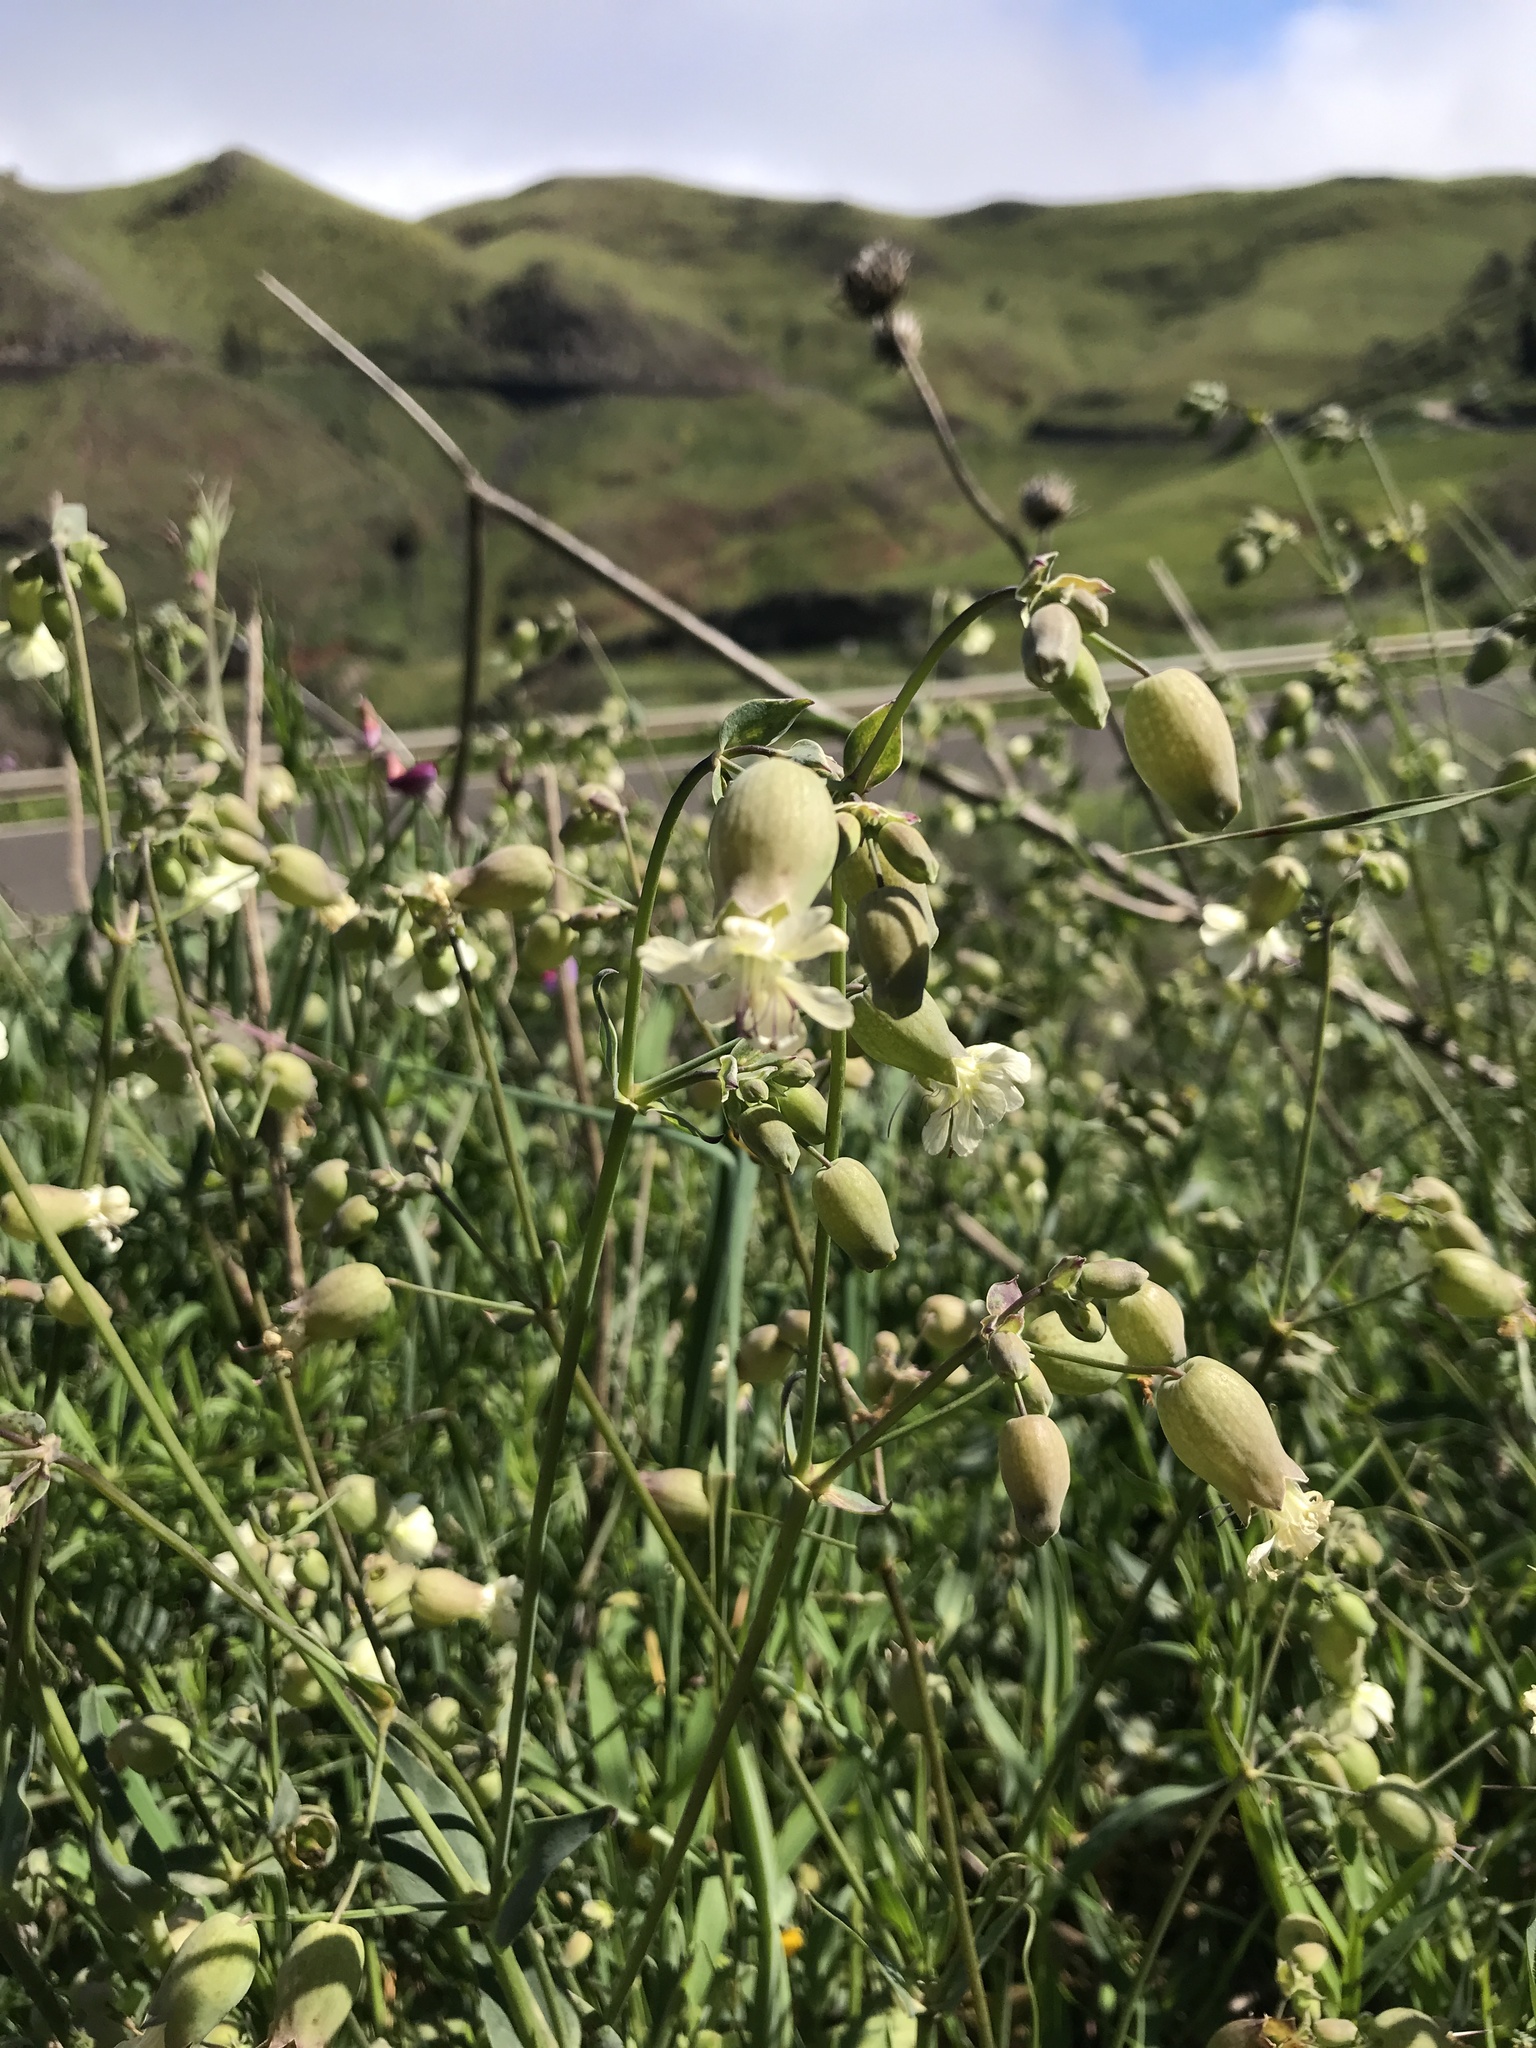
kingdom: Plantae
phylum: Tracheophyta
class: Magnoliopsida
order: Caryophyllales
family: Caryophyllaceae
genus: Silene
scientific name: Silene vulgaris
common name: Bladder campion
